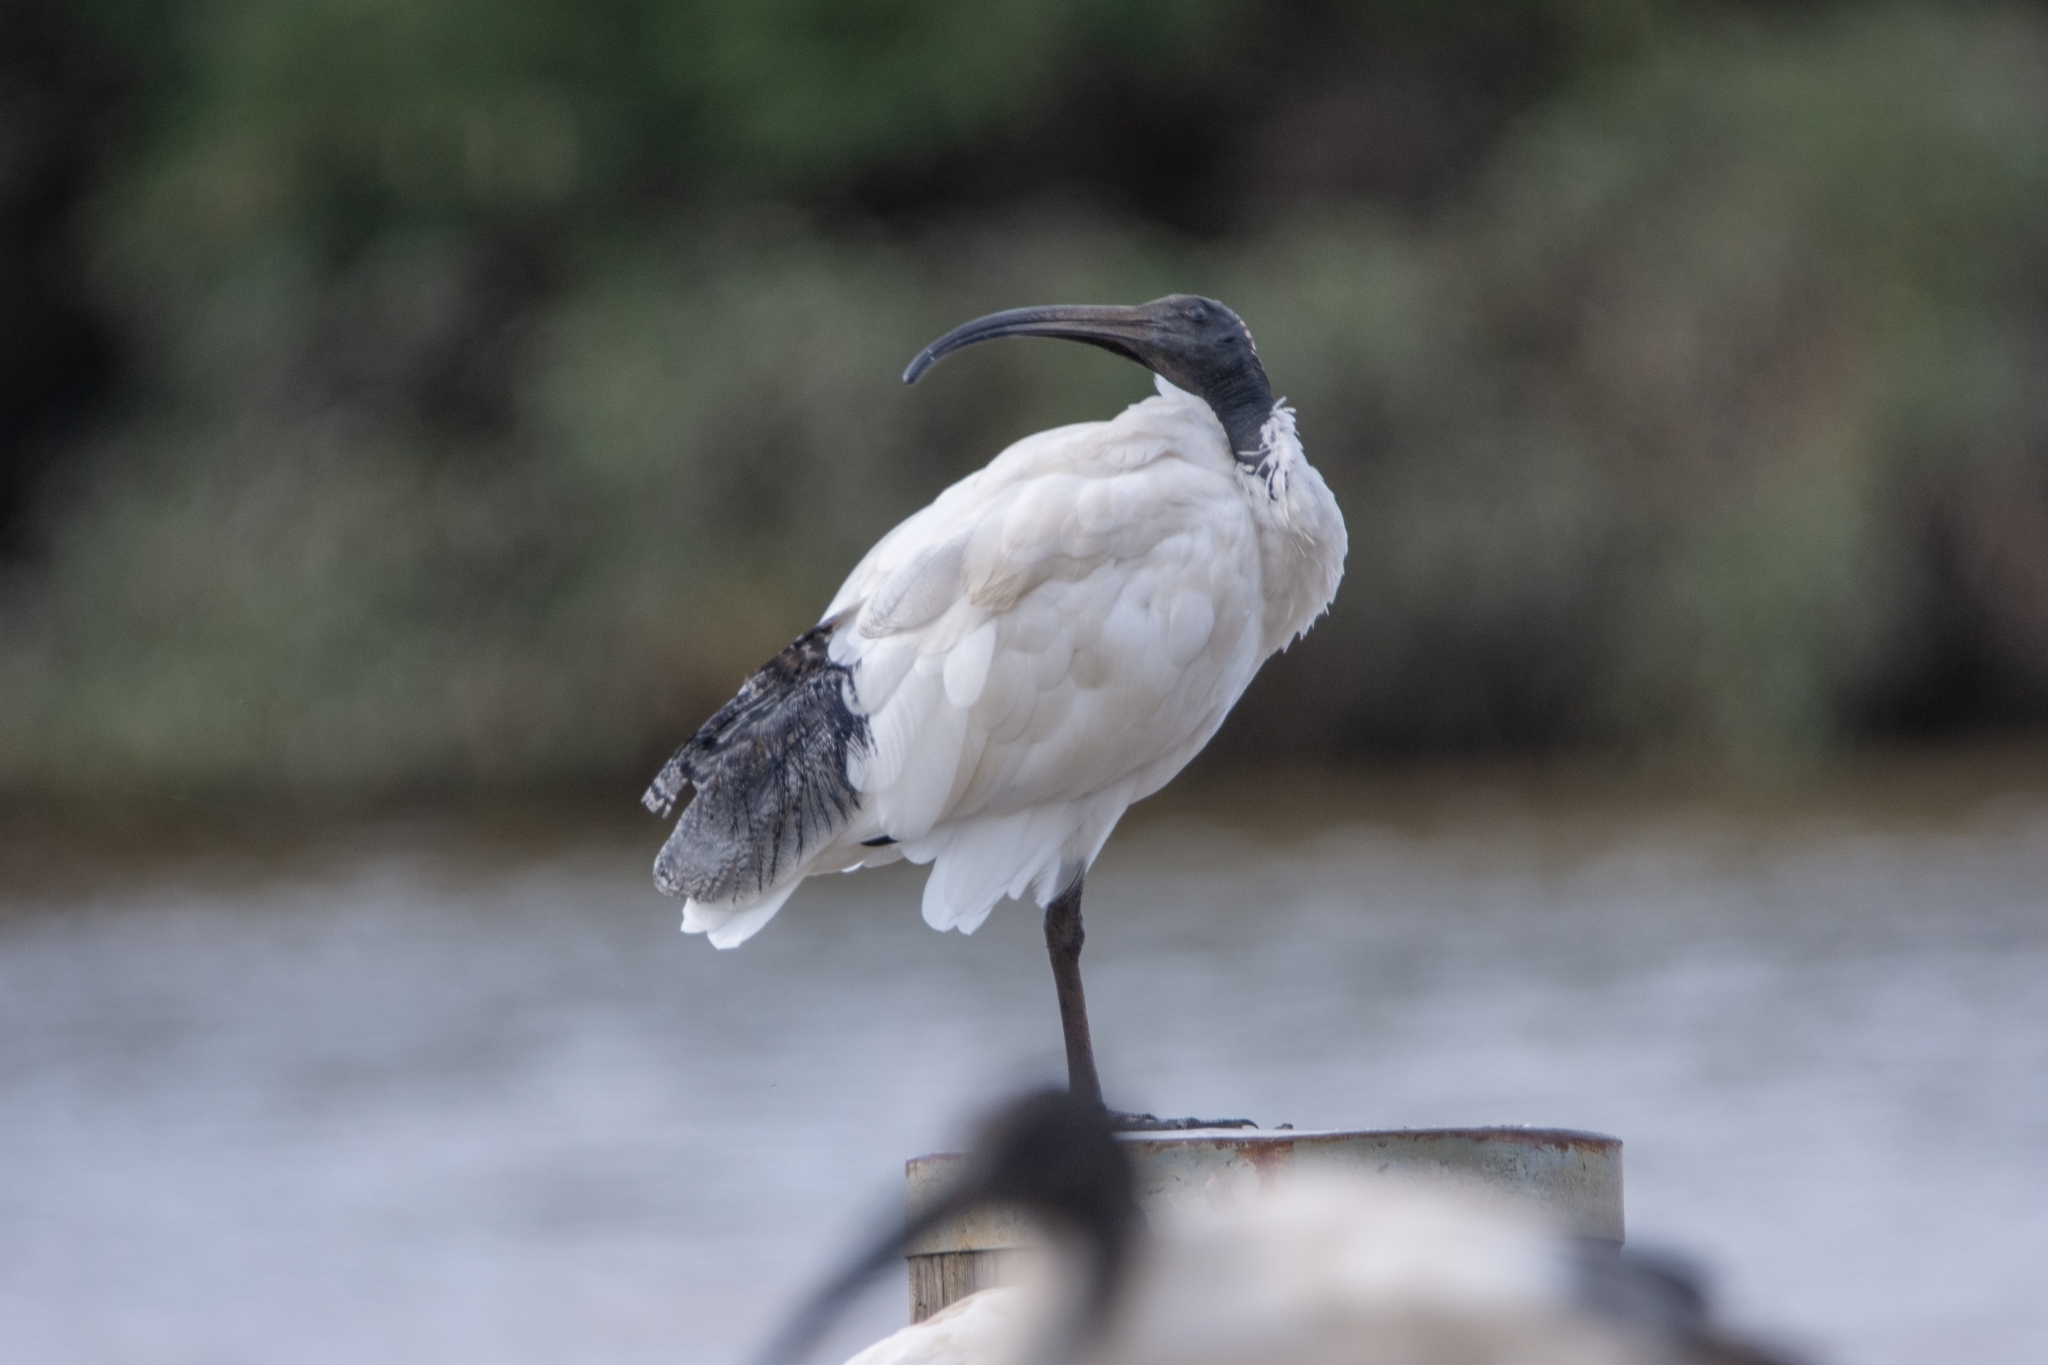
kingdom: Animalia
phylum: Chordata
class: Aves
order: Pelecaniformes
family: Threskiornithidae
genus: Threskiornis
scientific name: Threskiornis molucca
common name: Australian white ibis
